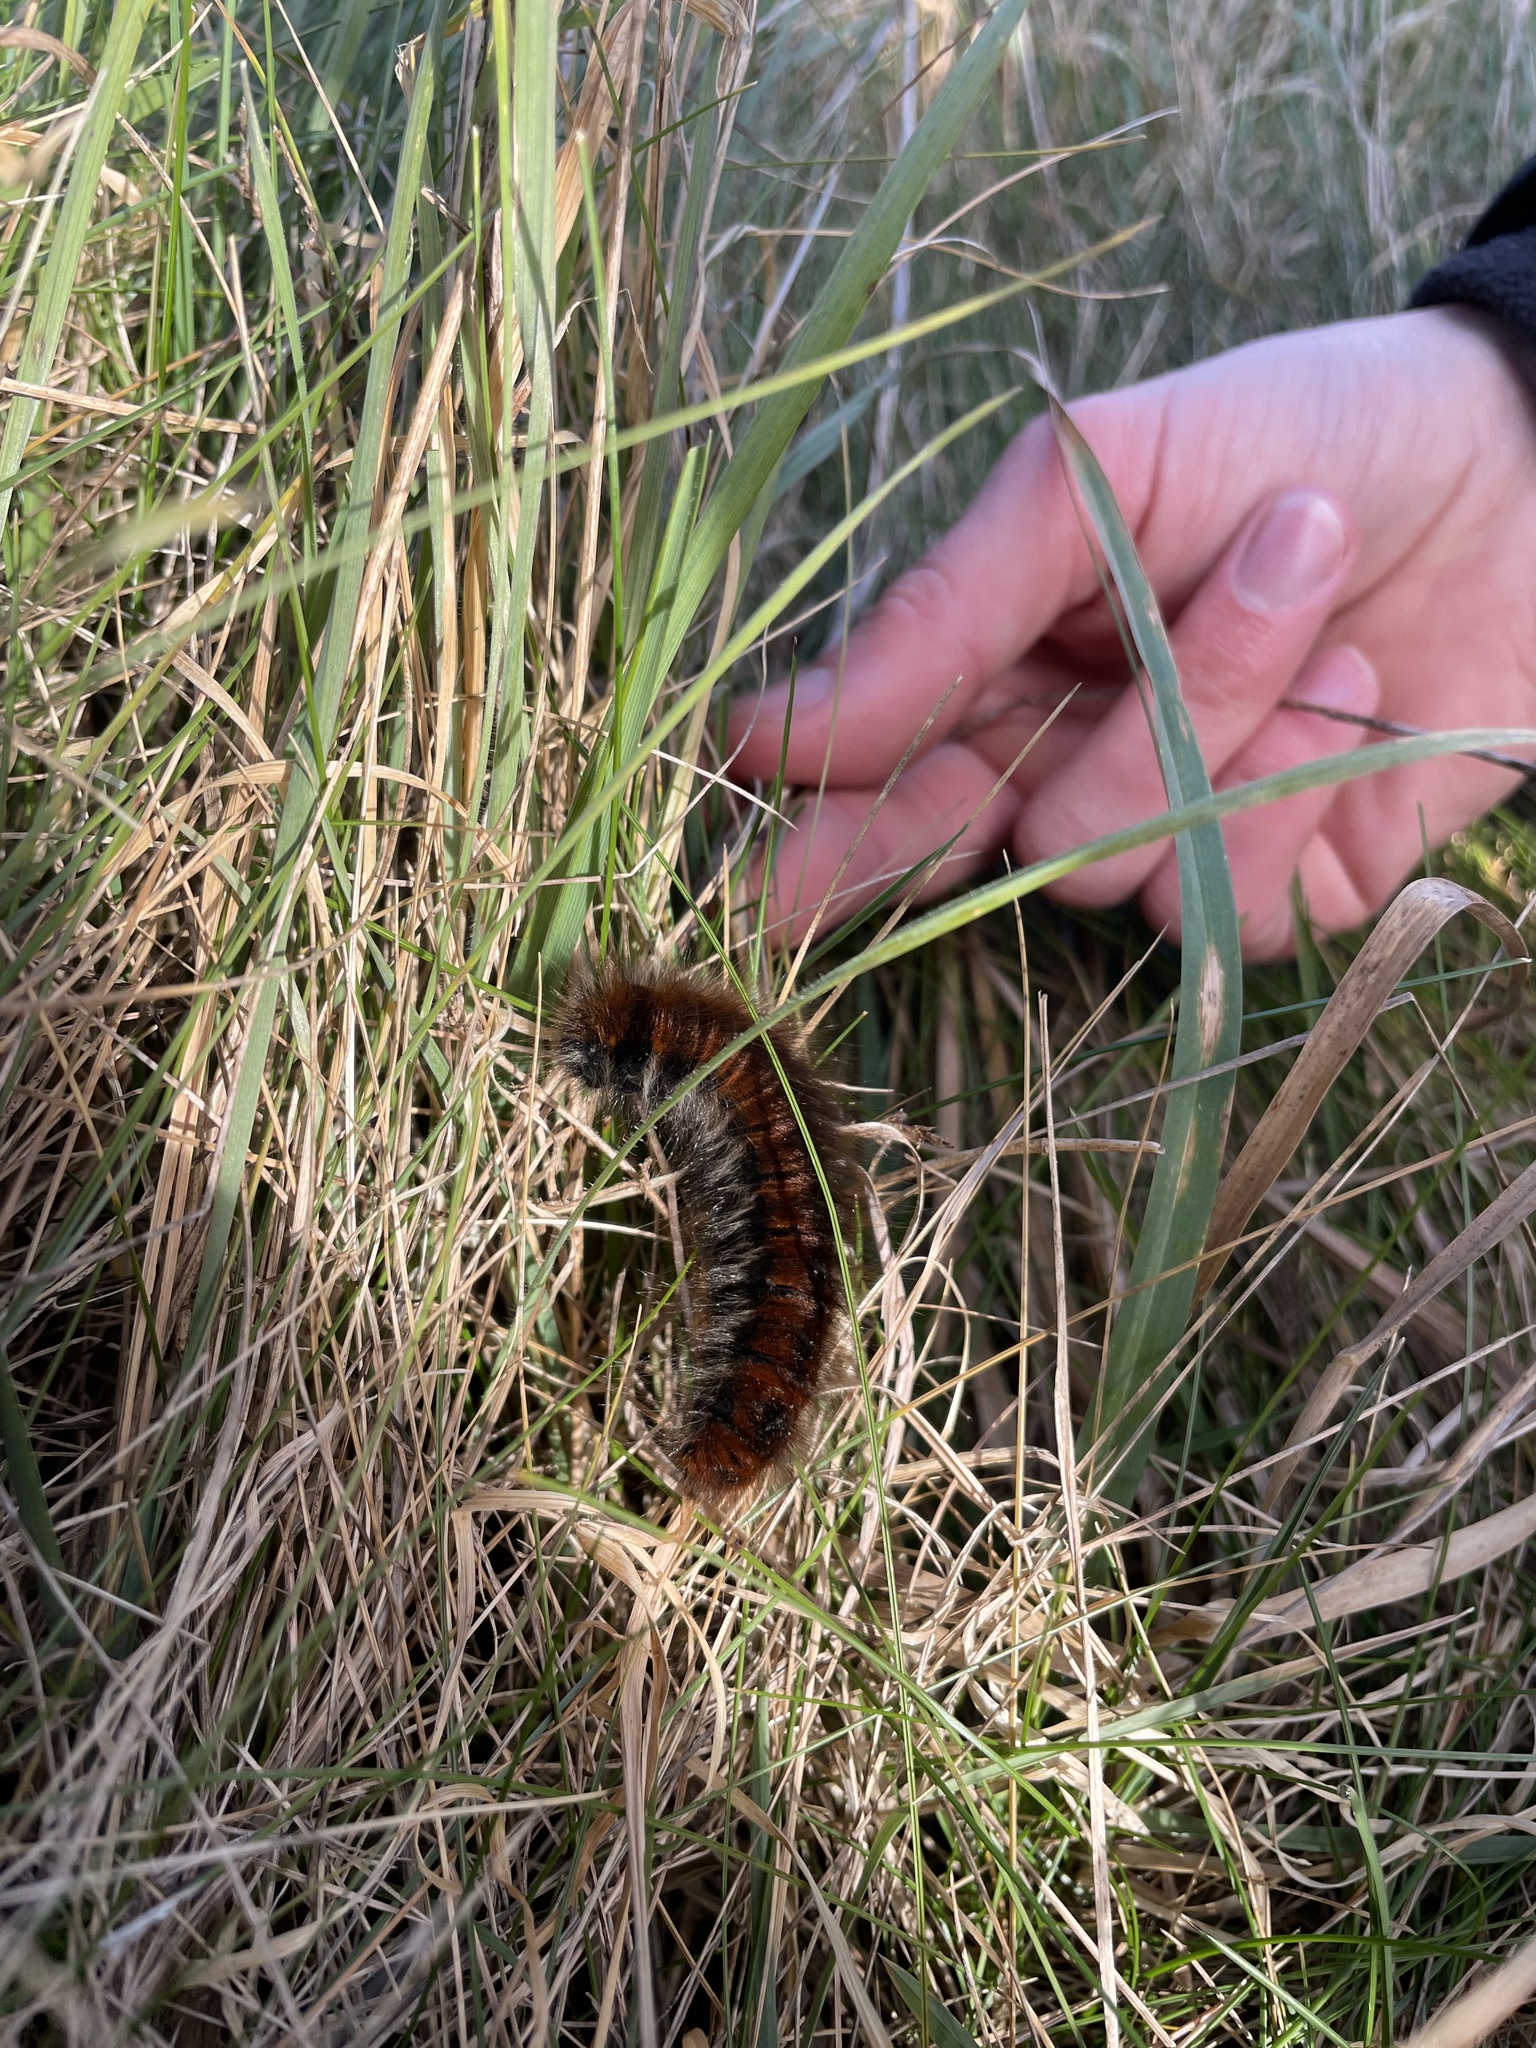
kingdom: Animalia
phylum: Arthropoda
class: Insecta
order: Lepidoptera
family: Lasiocampidae
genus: Macrothylacia
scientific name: Macrothylacia rubi
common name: Fox moth
